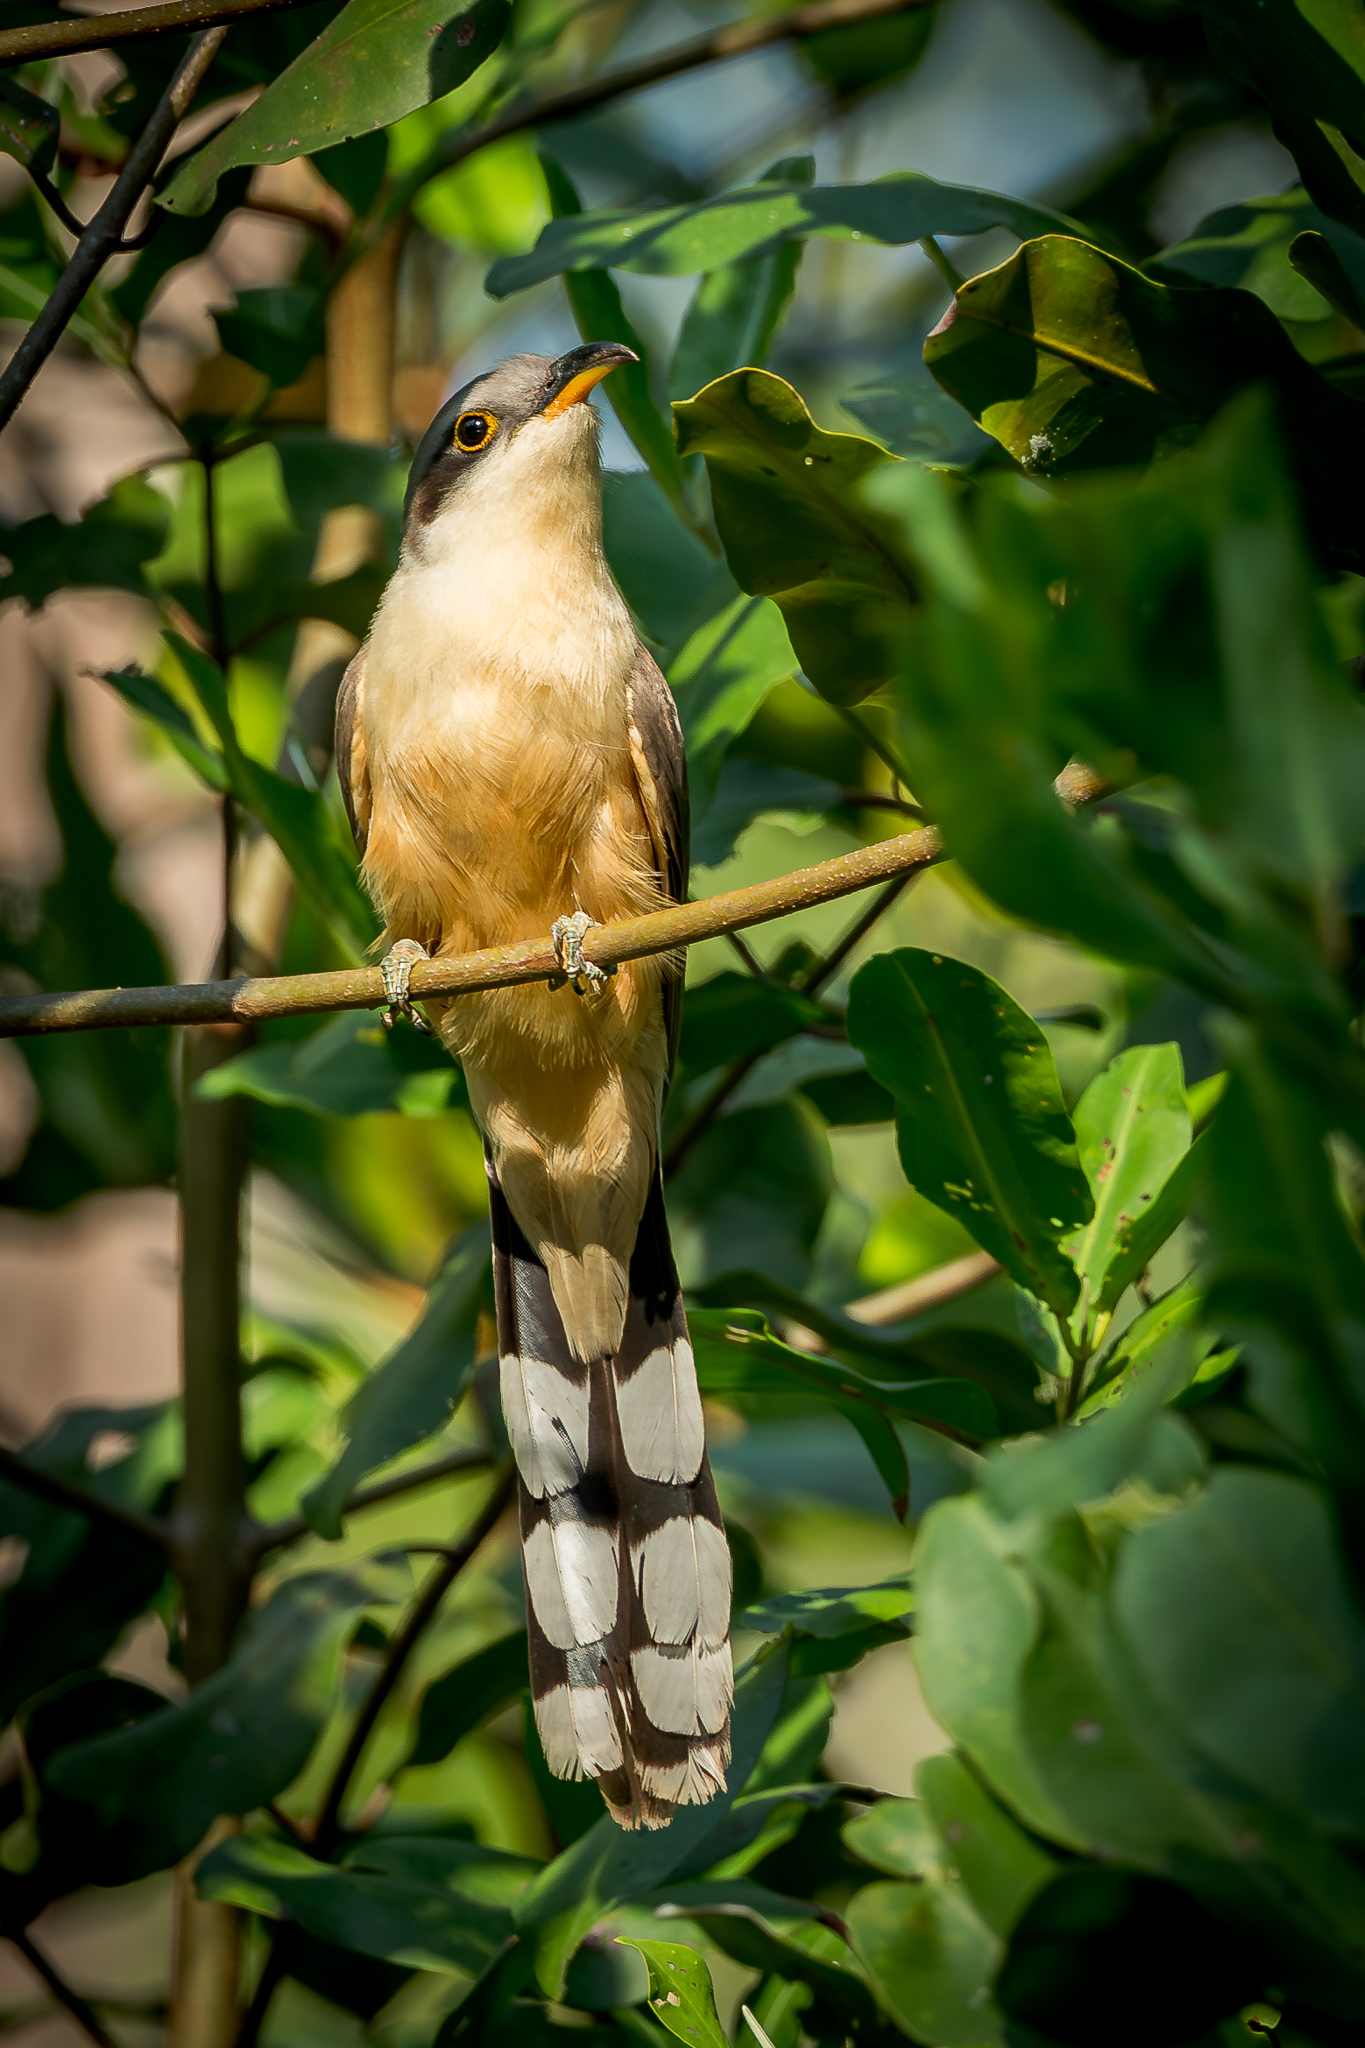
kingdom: Animalia
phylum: Chordata
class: Aves
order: Cuculiformes
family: Cuculidae
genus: Coccyzus
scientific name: Coccyzus minor
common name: Mangrove cuckoo
